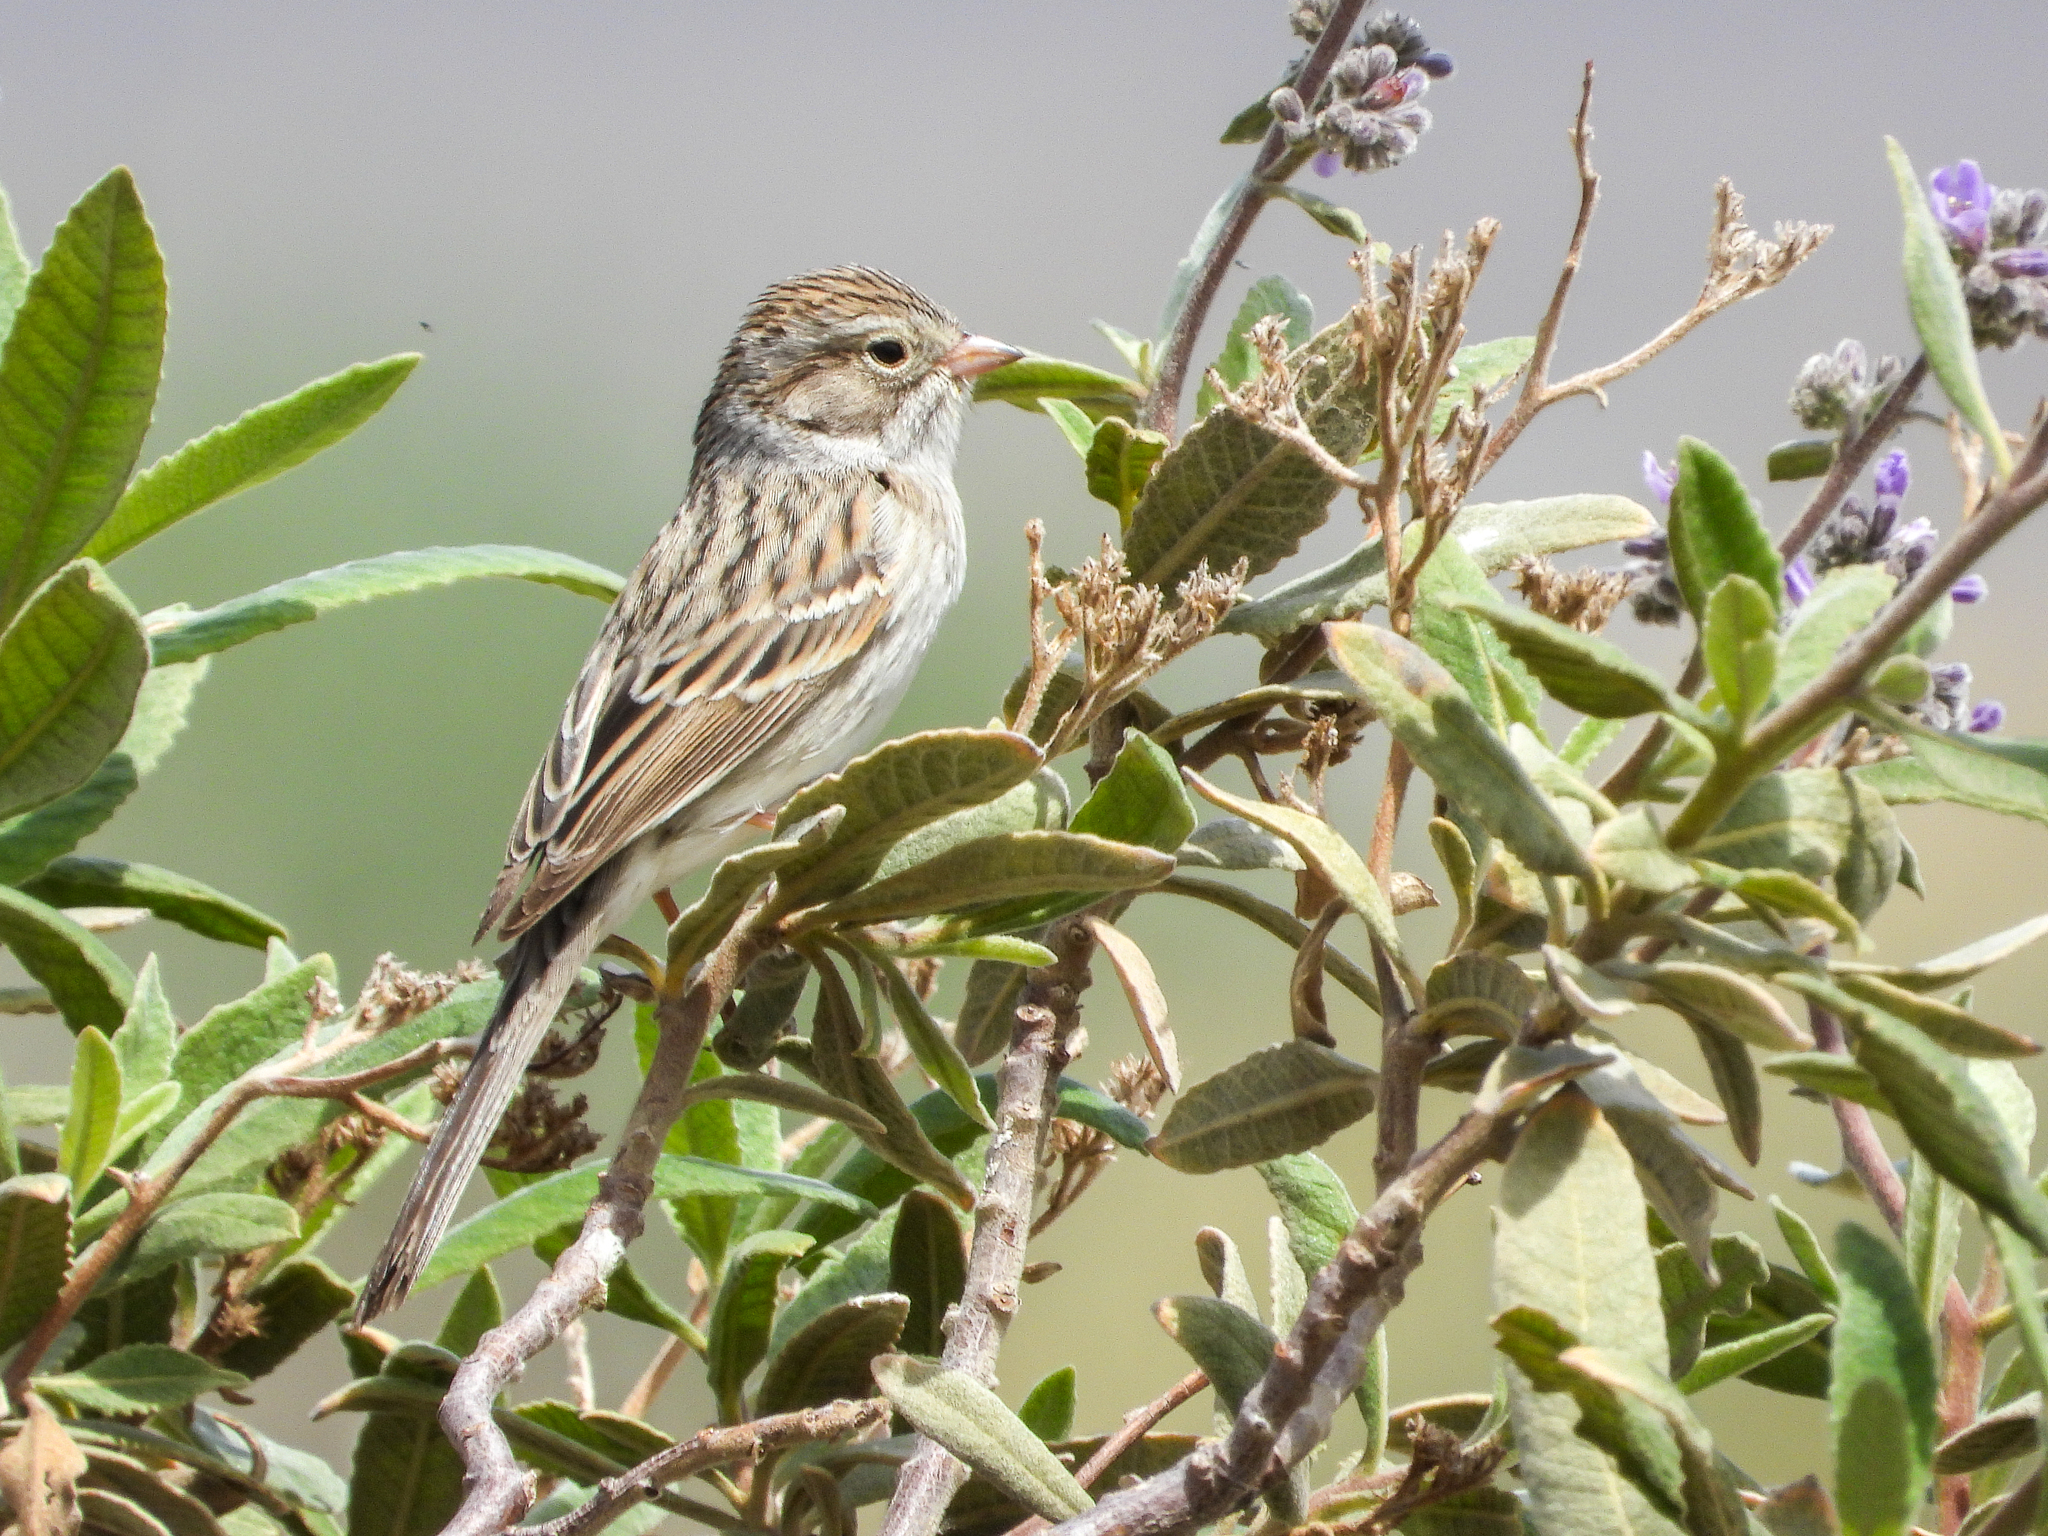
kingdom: Animalia
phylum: Chordata
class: Aves
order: Passeriformes
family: Passerellidae
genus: Spizella
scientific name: Spizella breweri
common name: Brewer's sparrow
